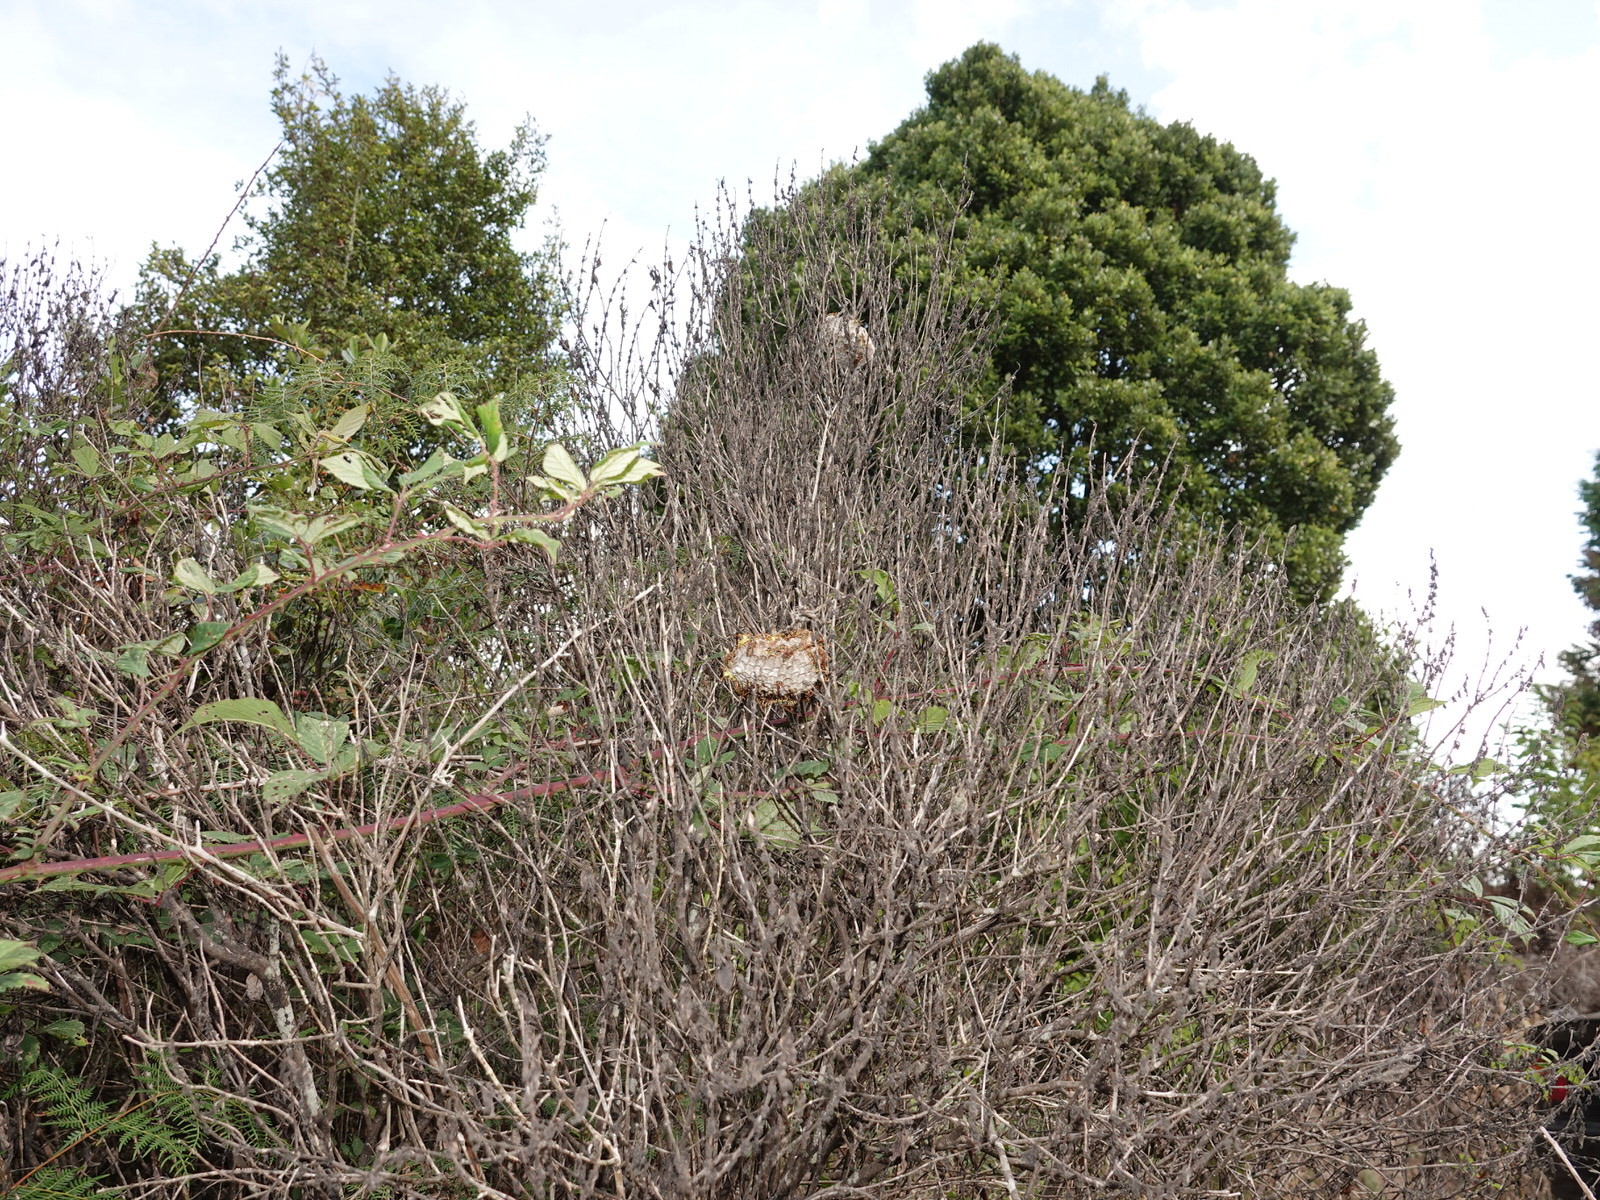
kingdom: Animalia
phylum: Arthropoda
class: Insecta
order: Hymenoptera
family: Eumenidae
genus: Polistes
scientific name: Polistes chinensis
